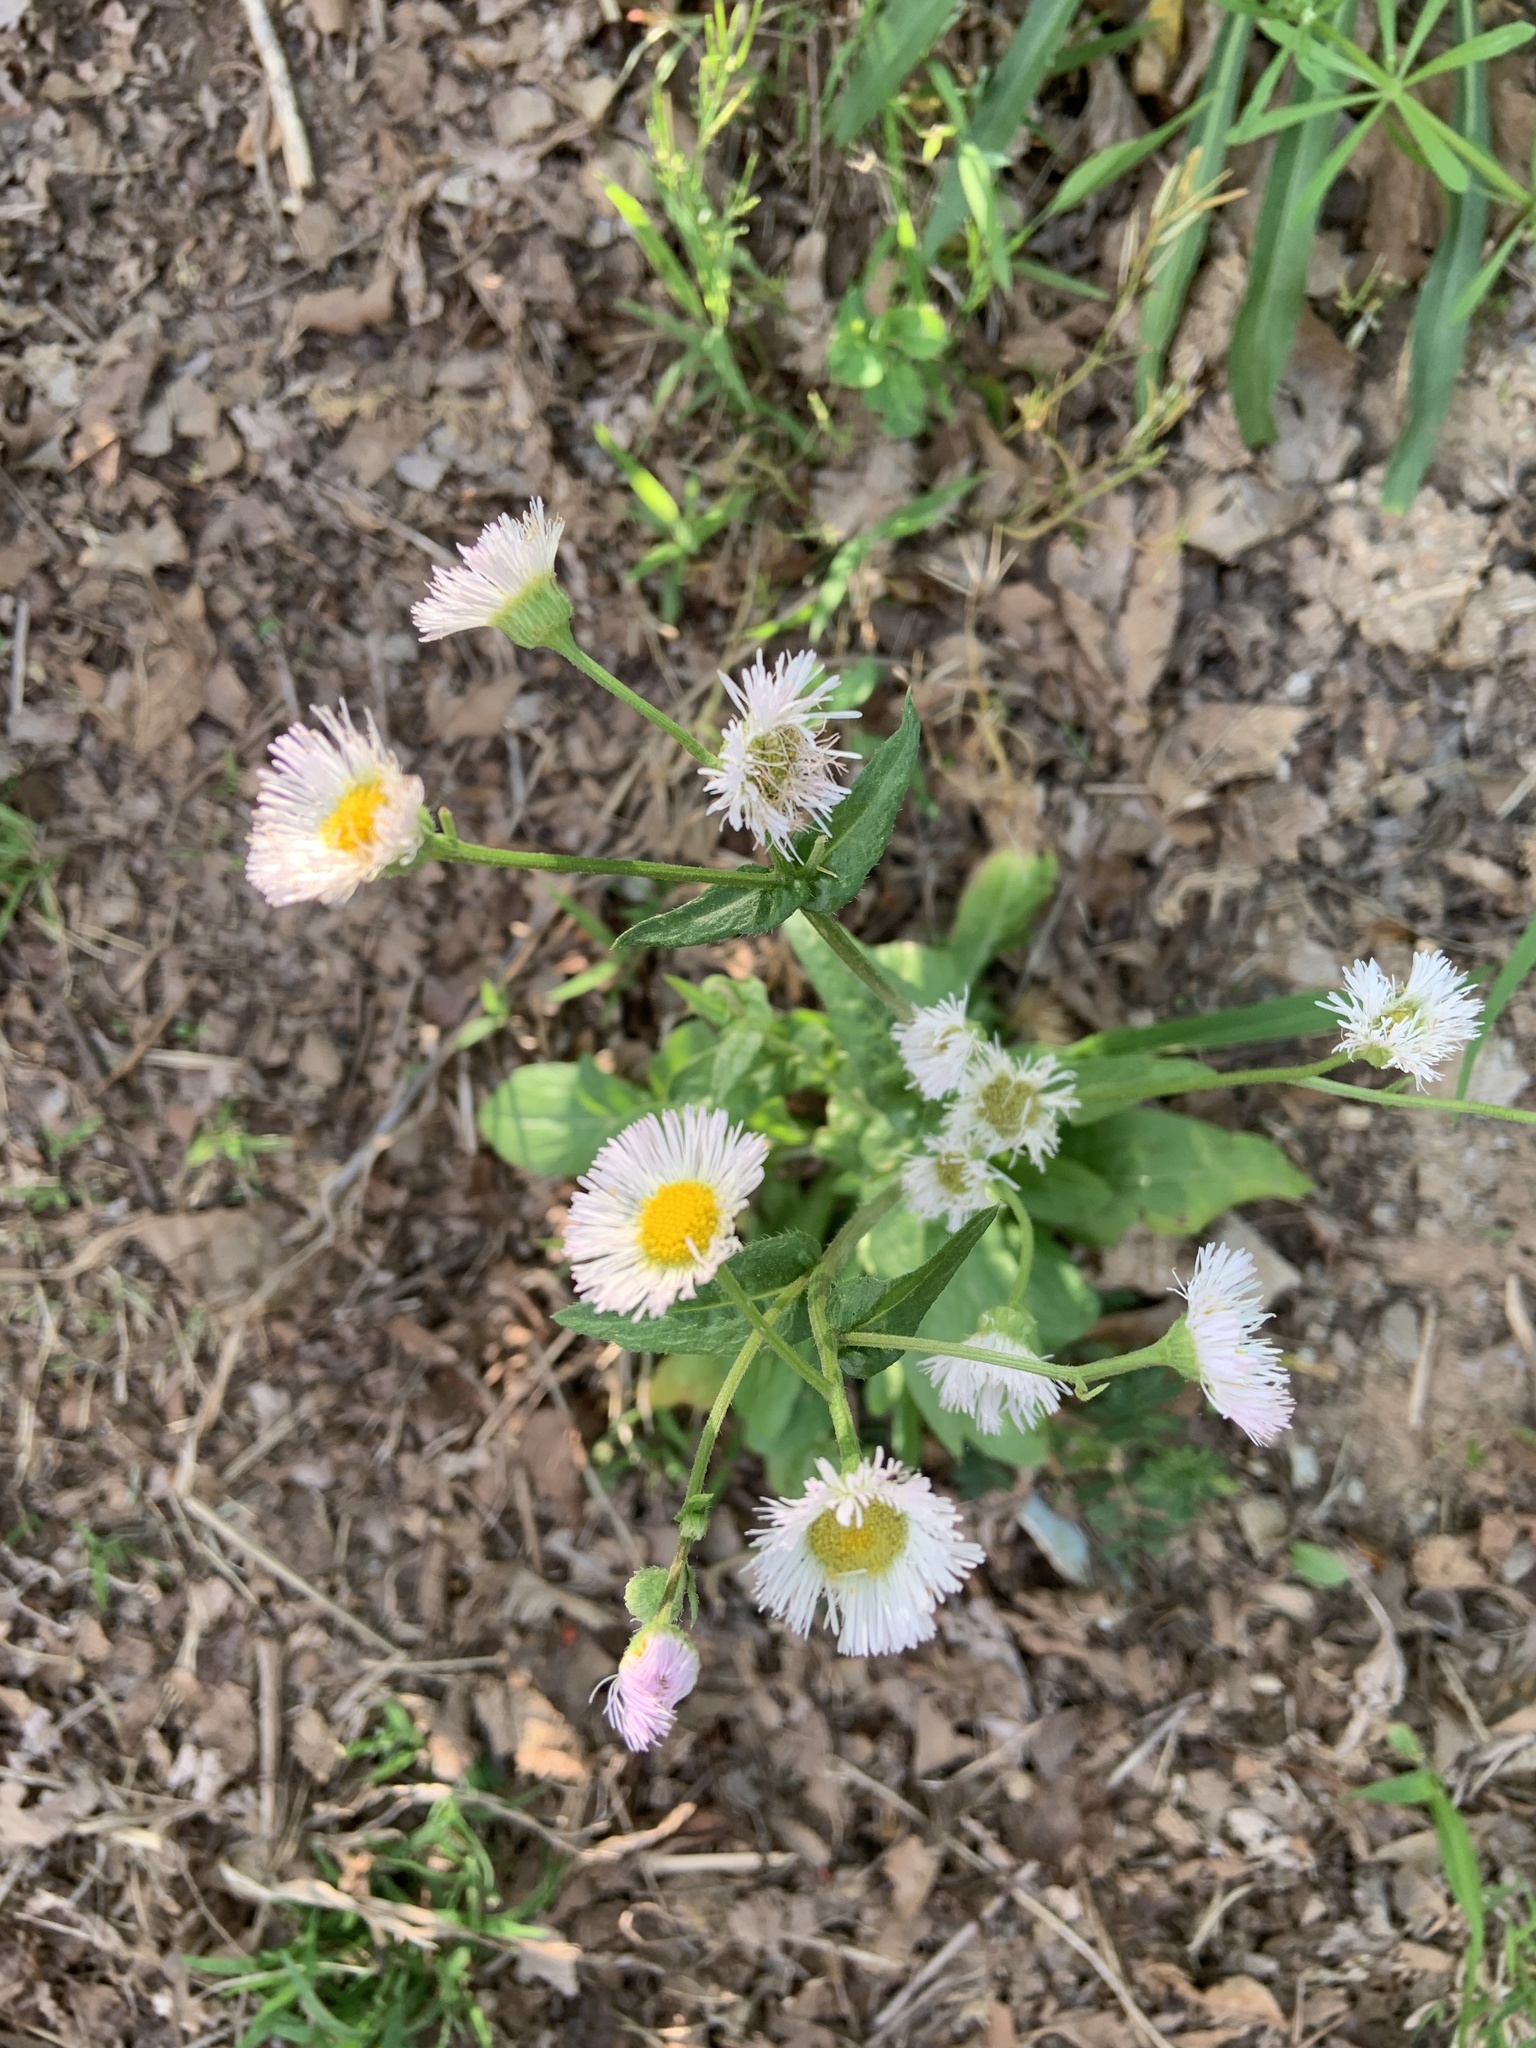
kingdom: Plantae
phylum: Tracheophyta
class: Magnoliopsida
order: Asterales
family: Asteraceae
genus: Erigeron
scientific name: Erigeron philadelphicus
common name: Robin's-plantain
